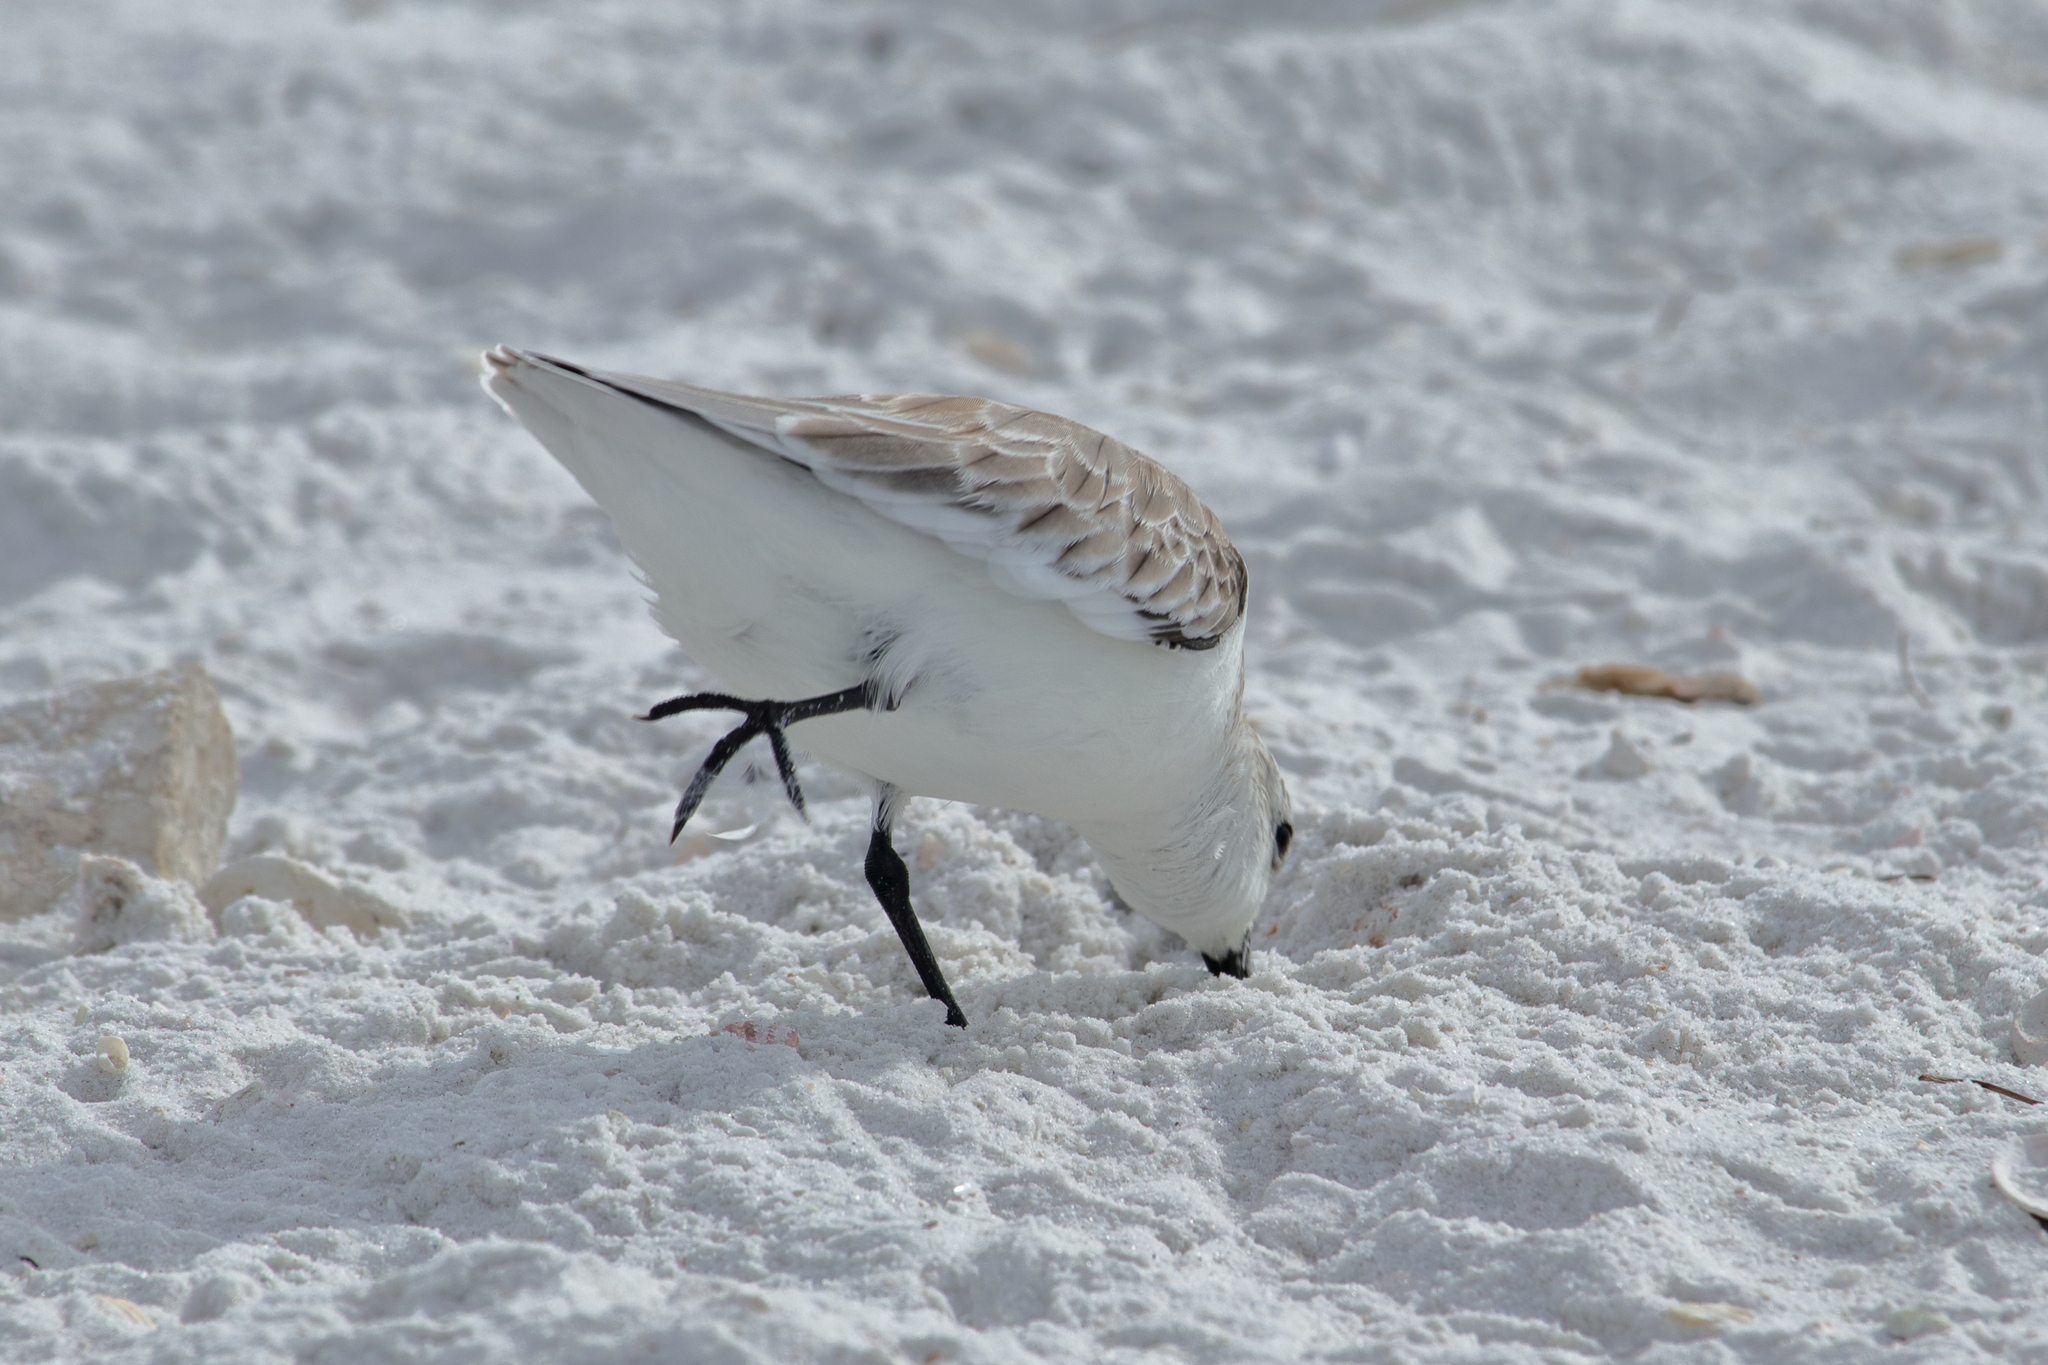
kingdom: Animalia
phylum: Chordata
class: Aves
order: Charadriiformes
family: Scolopacidae
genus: Calidris
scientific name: Calidris alba
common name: Sanderling
